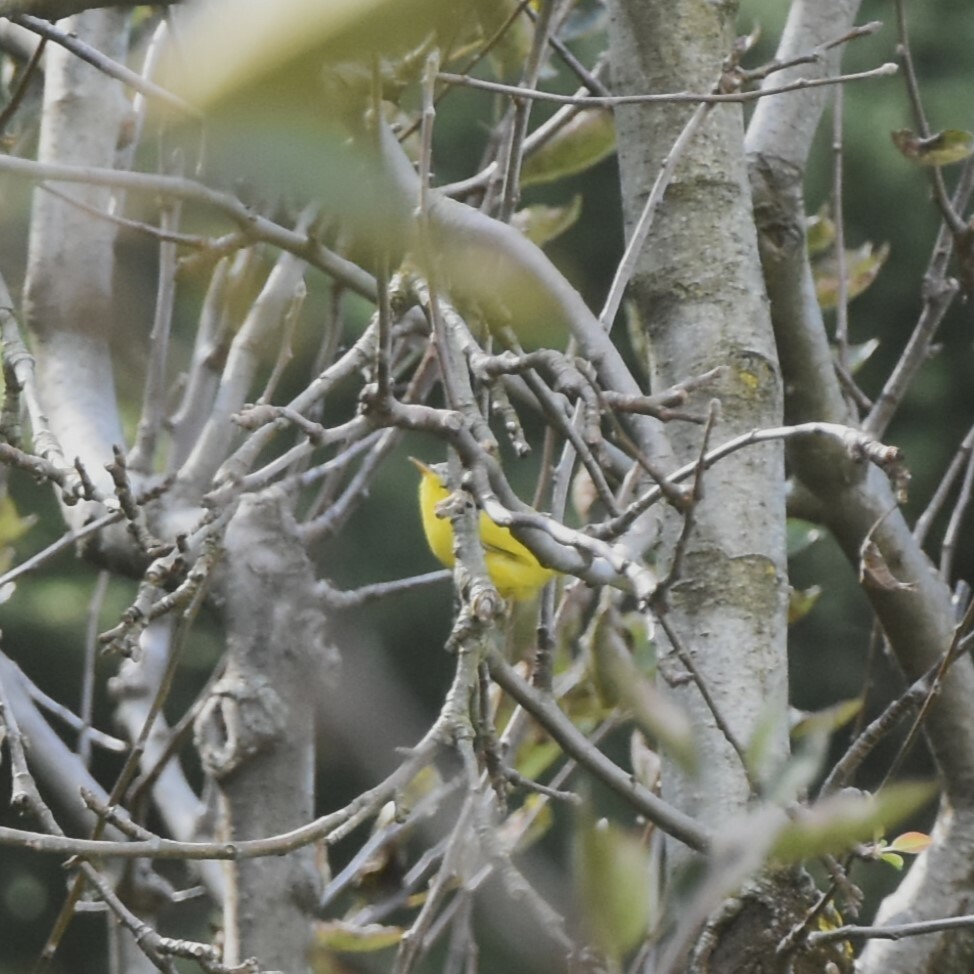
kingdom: Animalia
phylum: Chordata
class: Aves
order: Passeriformes
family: Phylloscopidae
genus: Phylloscopus
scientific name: Phylloscopus xanthoschistos
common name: Grey-hooded warbler
